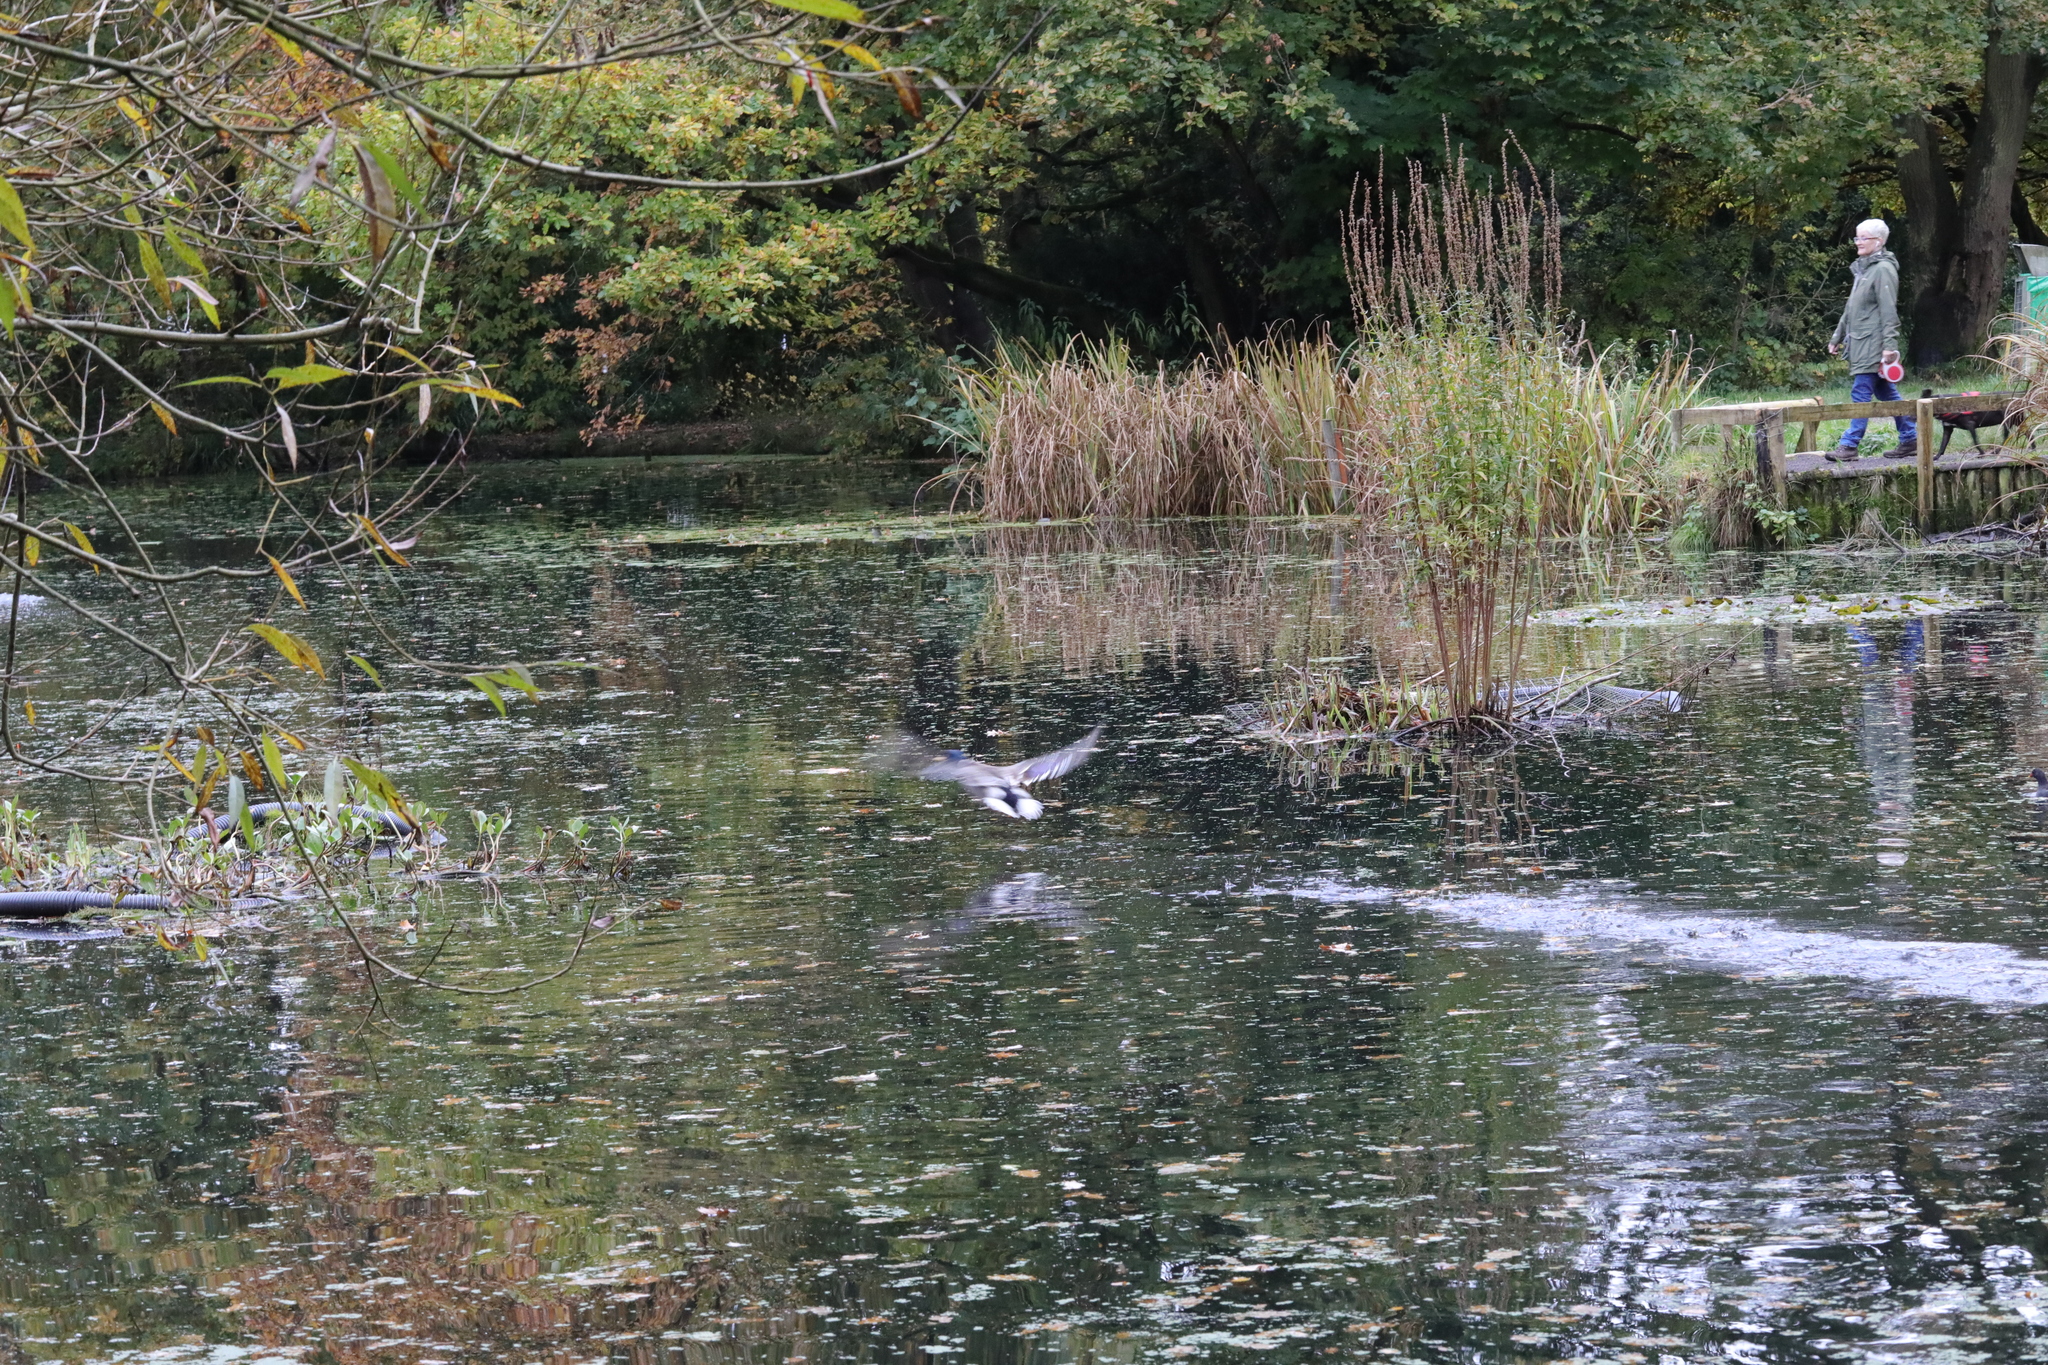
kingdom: Animalia
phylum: Chordata
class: Aves
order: Anseriformes
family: Anatidae
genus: Anas
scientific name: Anas platyrhynchos
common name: Mallard
